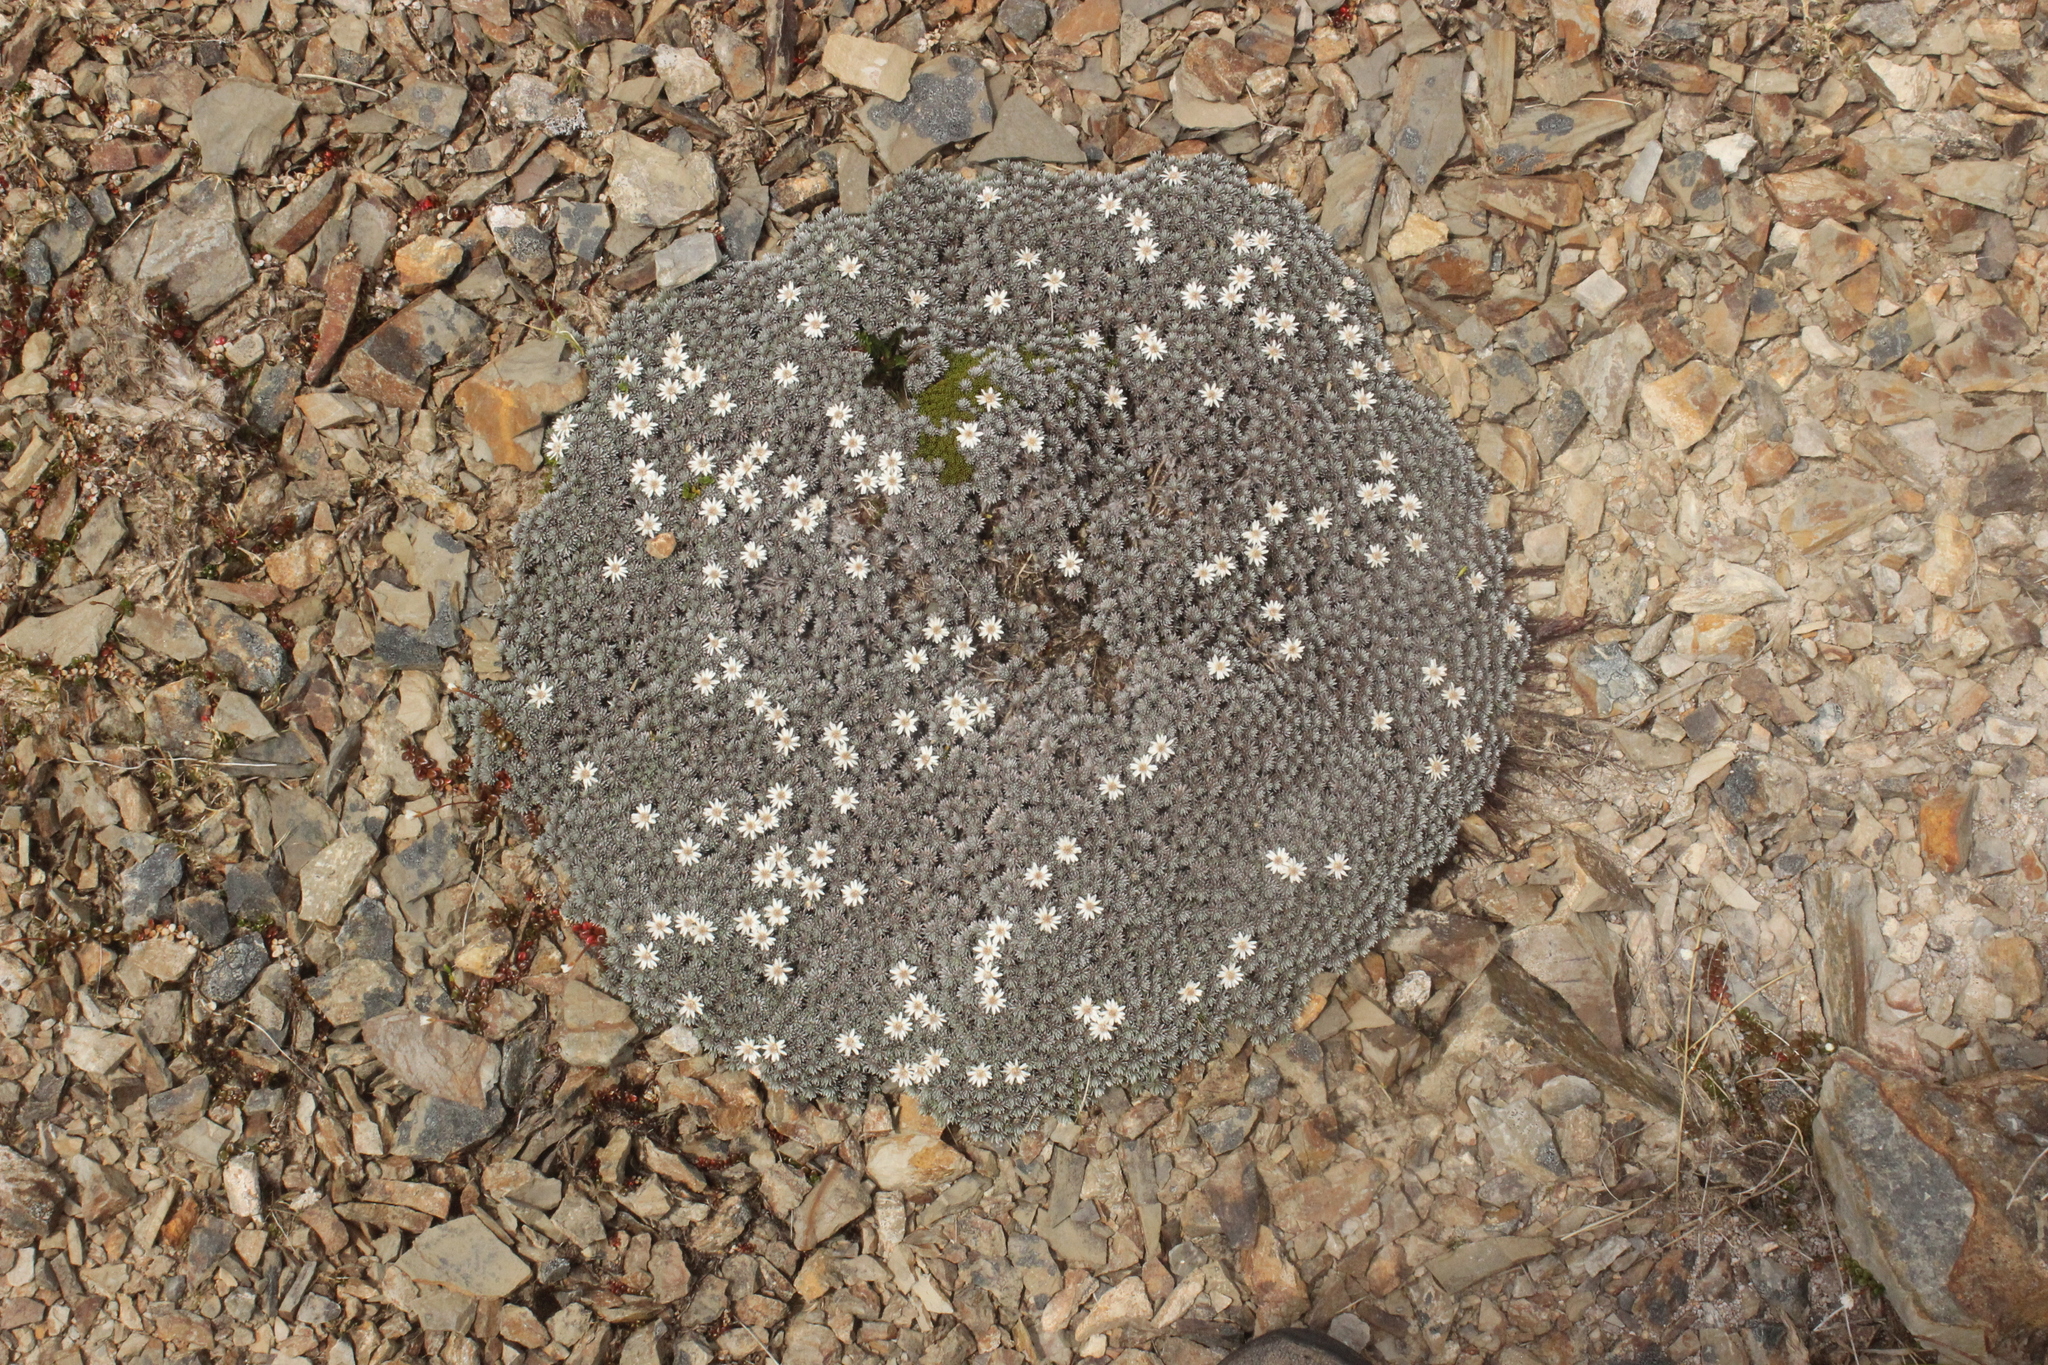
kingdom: Plantae
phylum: Tracheophyta
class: Magnoliopsida
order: Asterales
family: Asteraceae
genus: Raoulia
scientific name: Raoulia grandiflora
